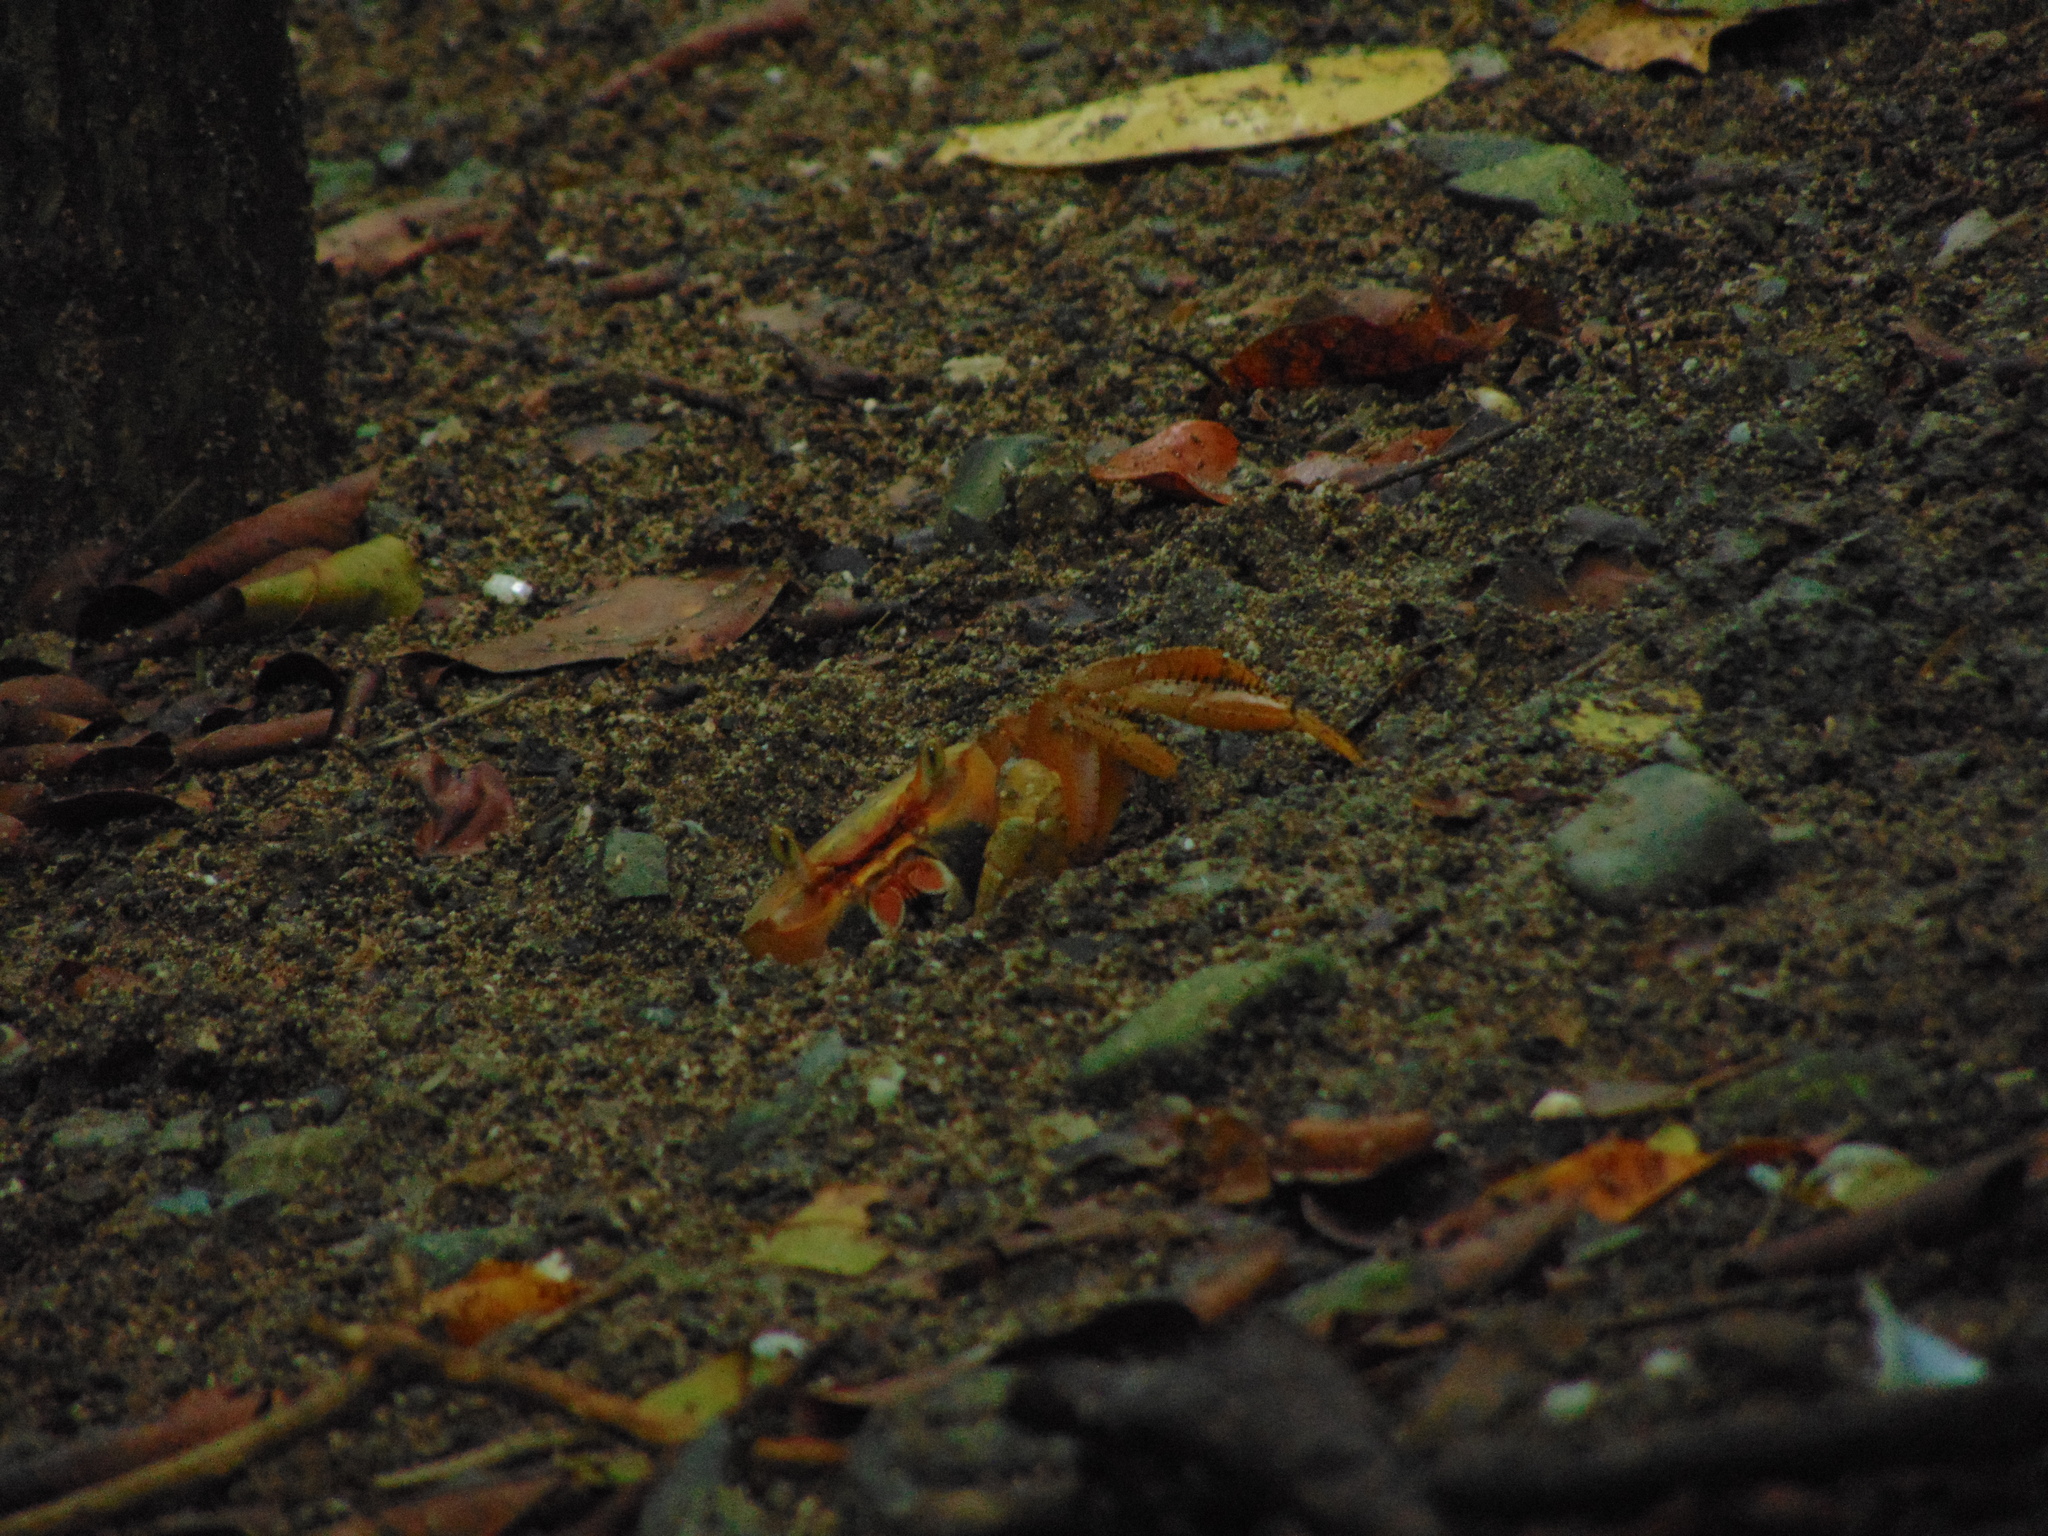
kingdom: Animalia
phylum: Arthropoda
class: Malacostraca
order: Decapoda
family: Gecarcinidae
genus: Cardisoma
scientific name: Cardisoma guanhumi
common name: Great land crab
